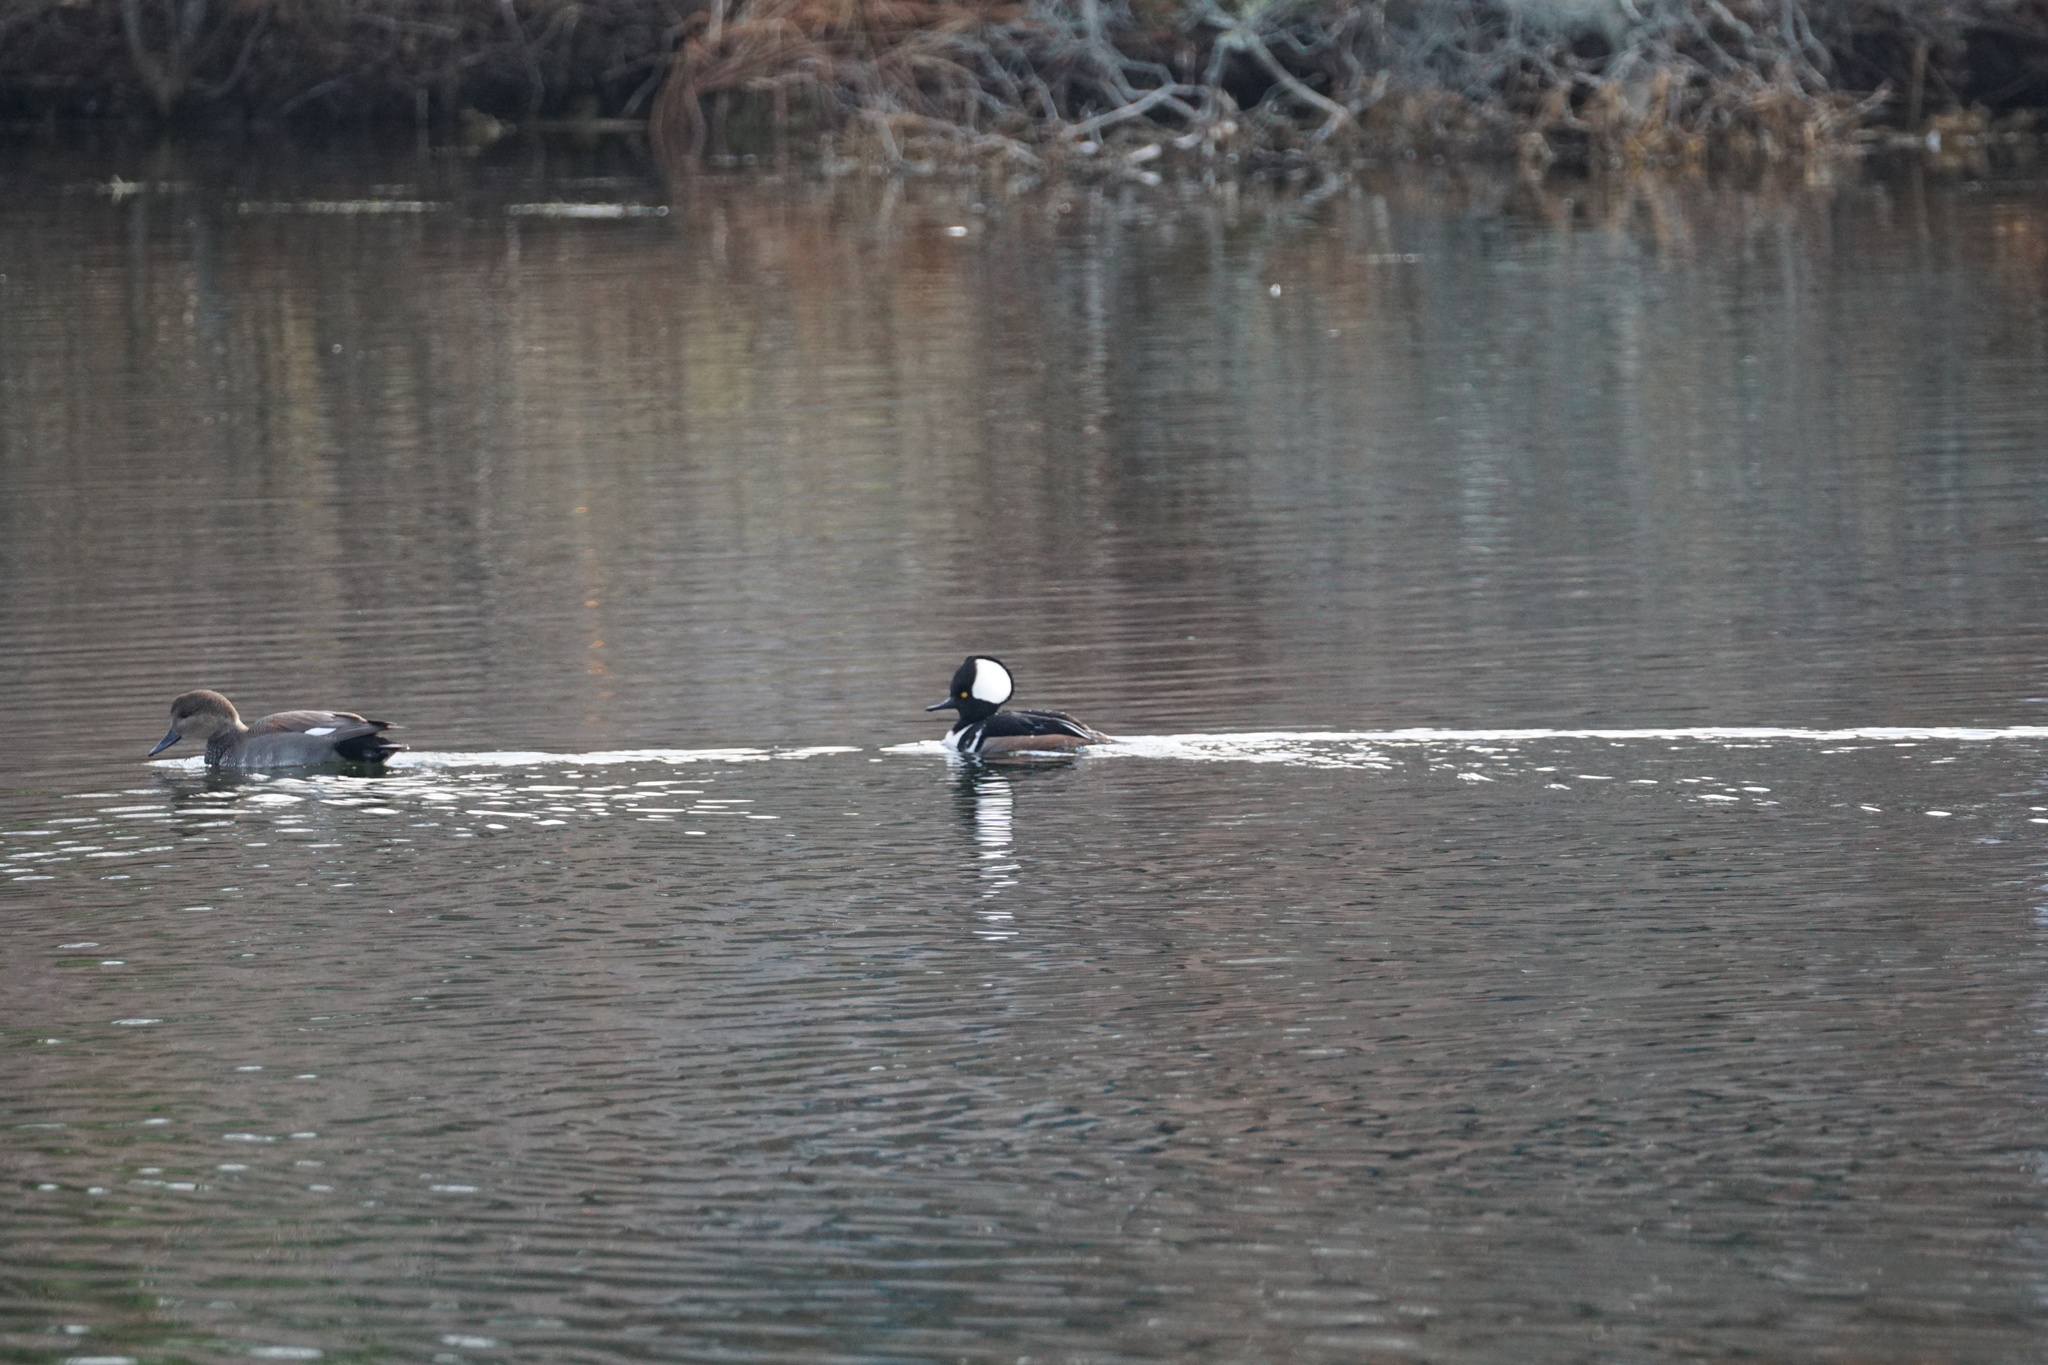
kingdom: Animalia
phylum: Chordata
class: Aves
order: Anseriformes
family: Anatidae
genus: Lophodytes
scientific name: Lophodytes cucullatus
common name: Hooded merganser
